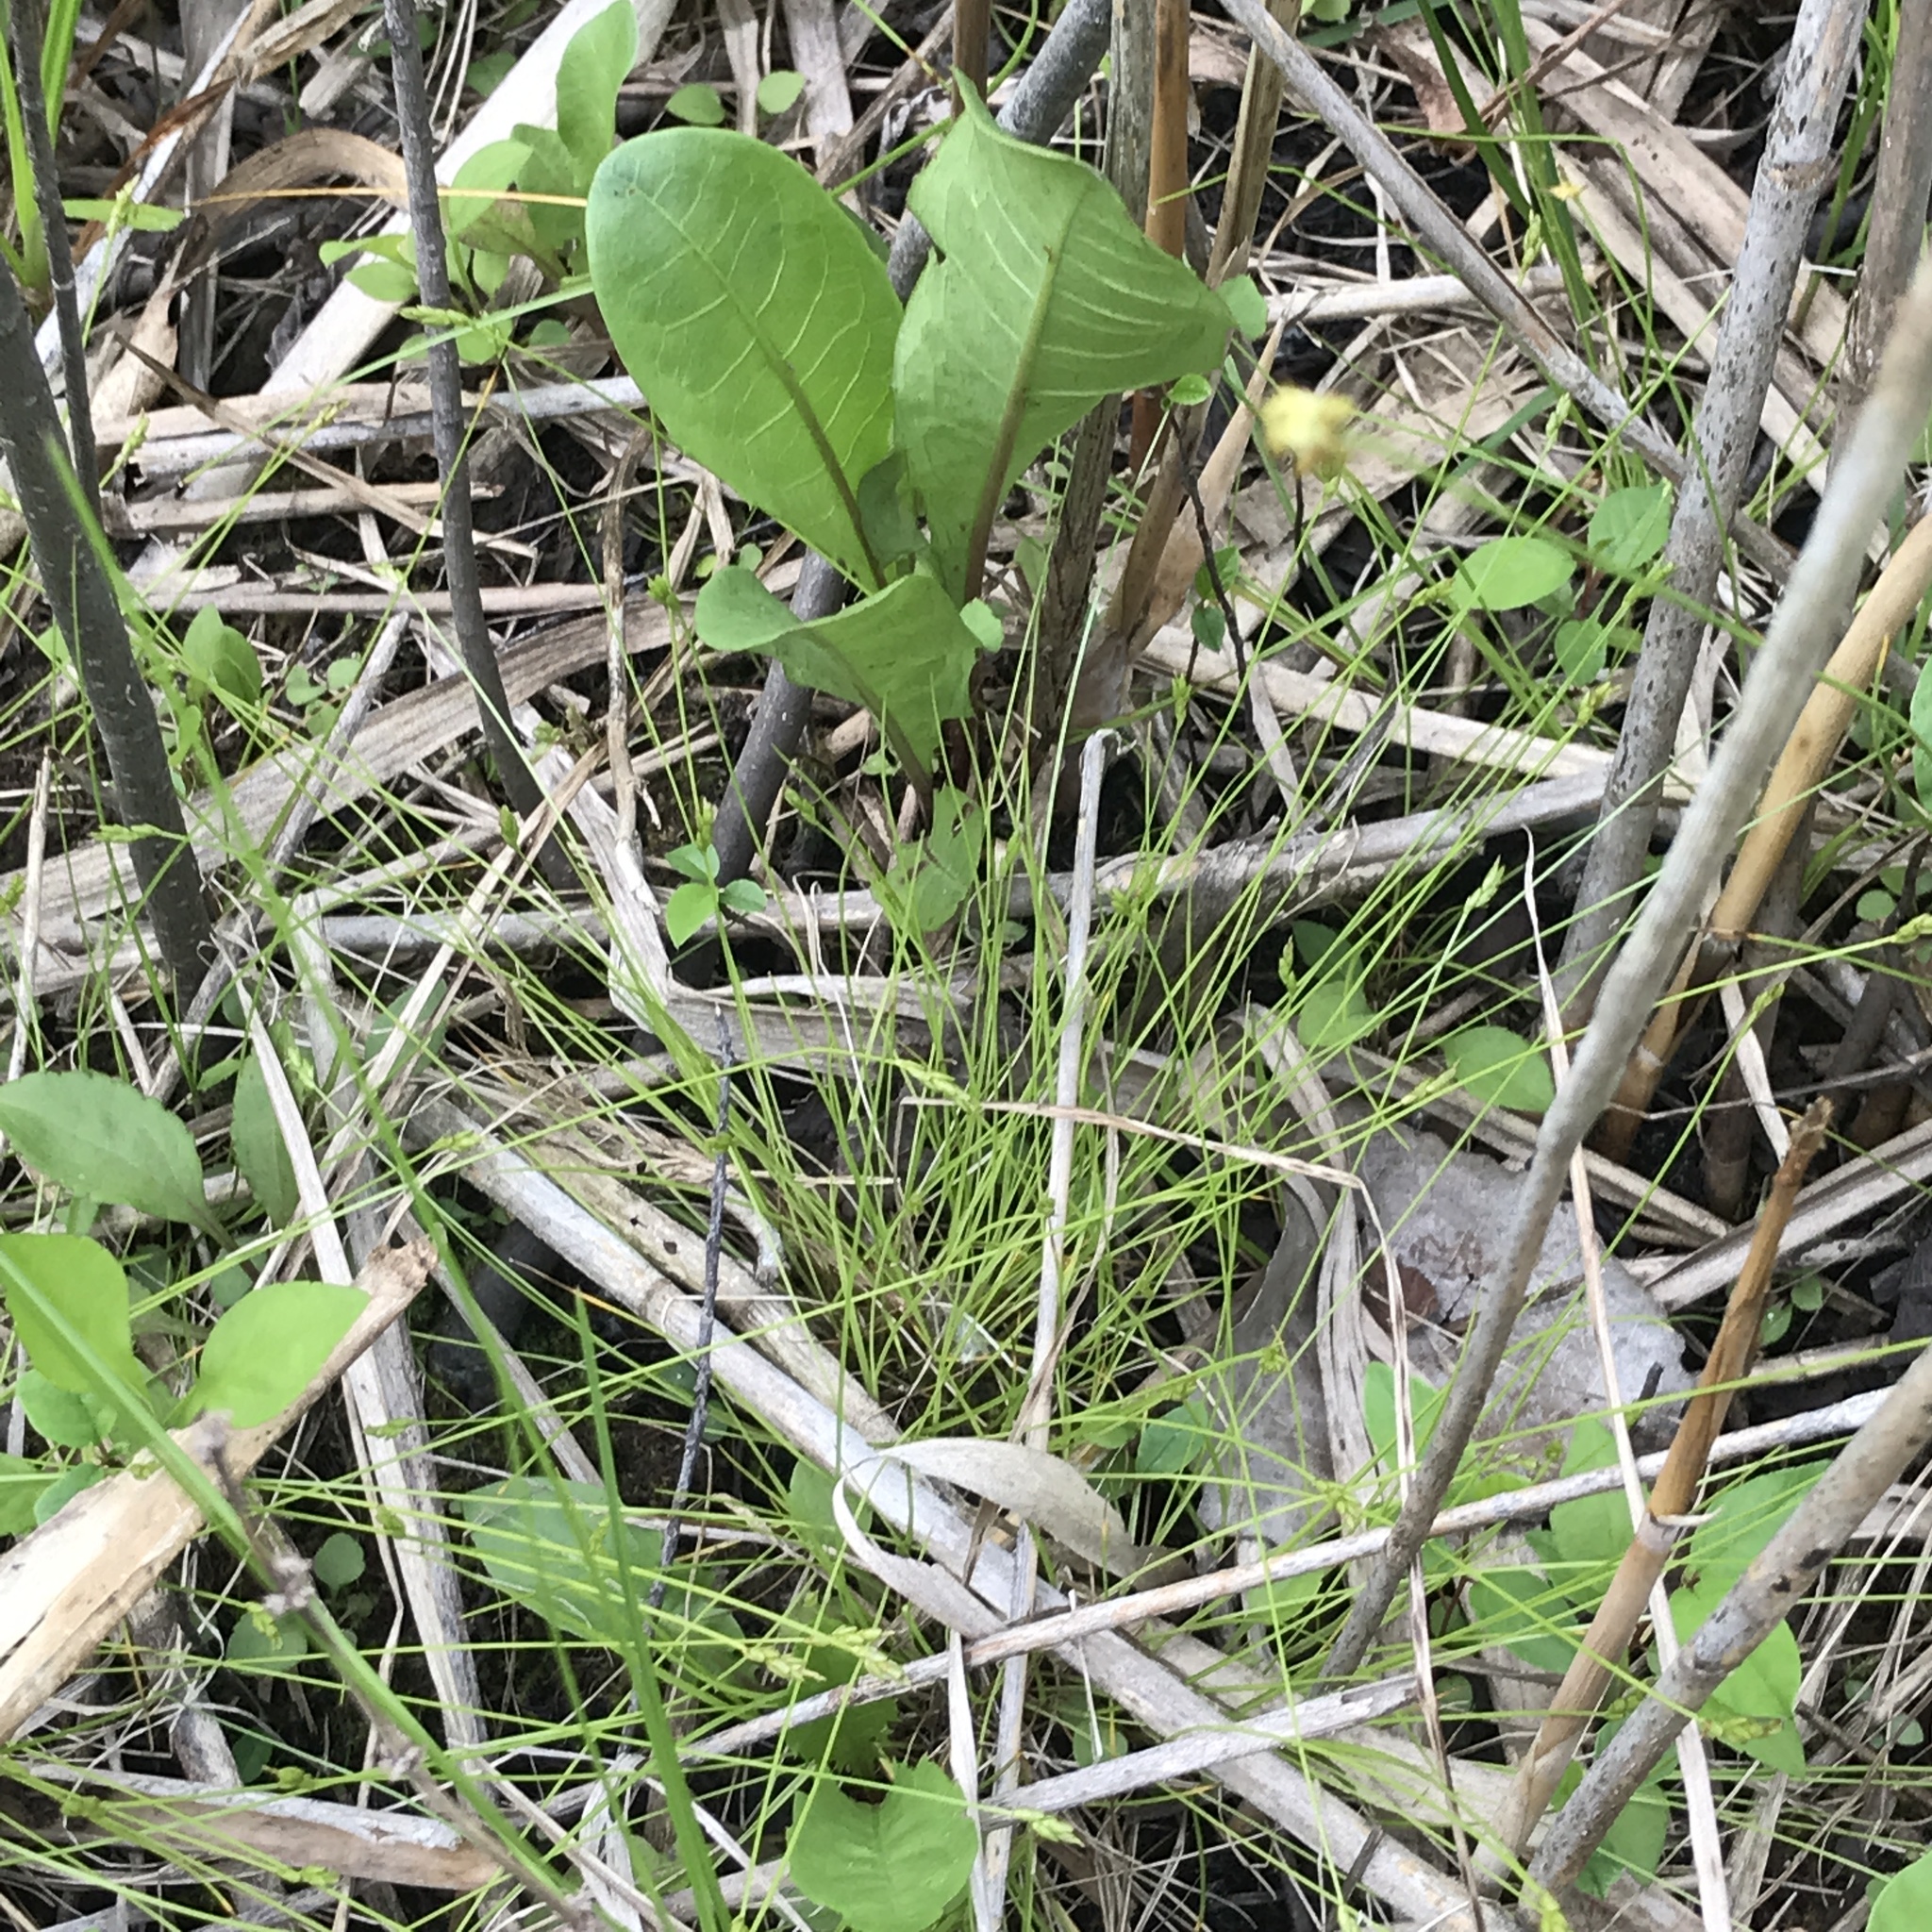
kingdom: Plantae
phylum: Tracheophyta
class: Liliopsida
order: Poales
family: Cyperaceae
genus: Carex
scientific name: Carex leptalea
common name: Bristly-stalked sedge
